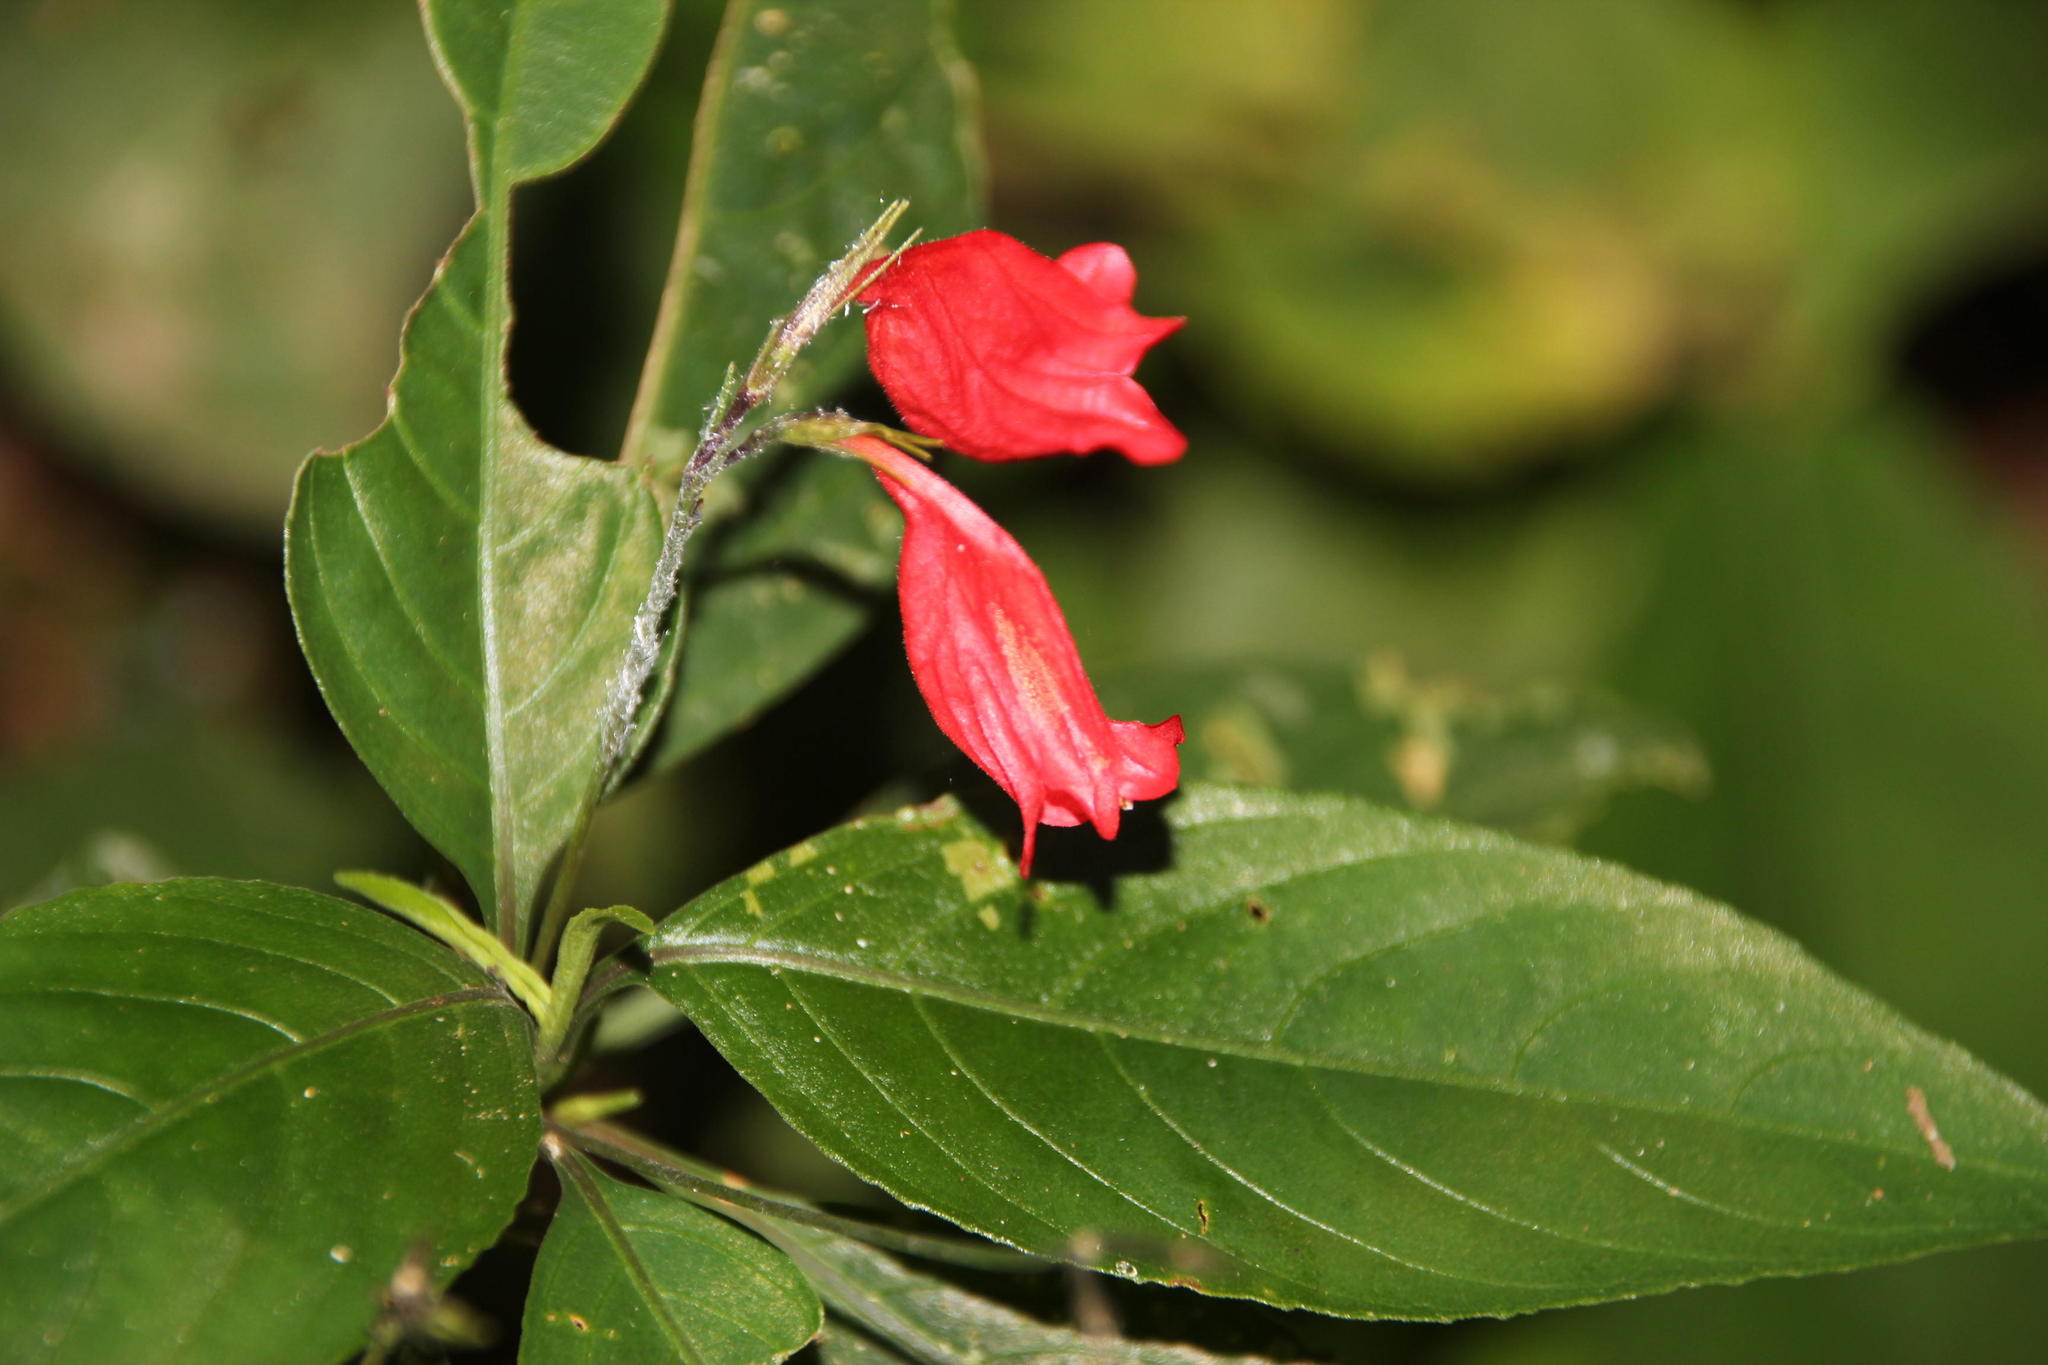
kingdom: Plantae
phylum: Tracheophyta
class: Magnoliopsida
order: Lamiales
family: Acanthaceae
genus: Ruellia
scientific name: Ruellia brevifolia
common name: Tropical wild petunia
